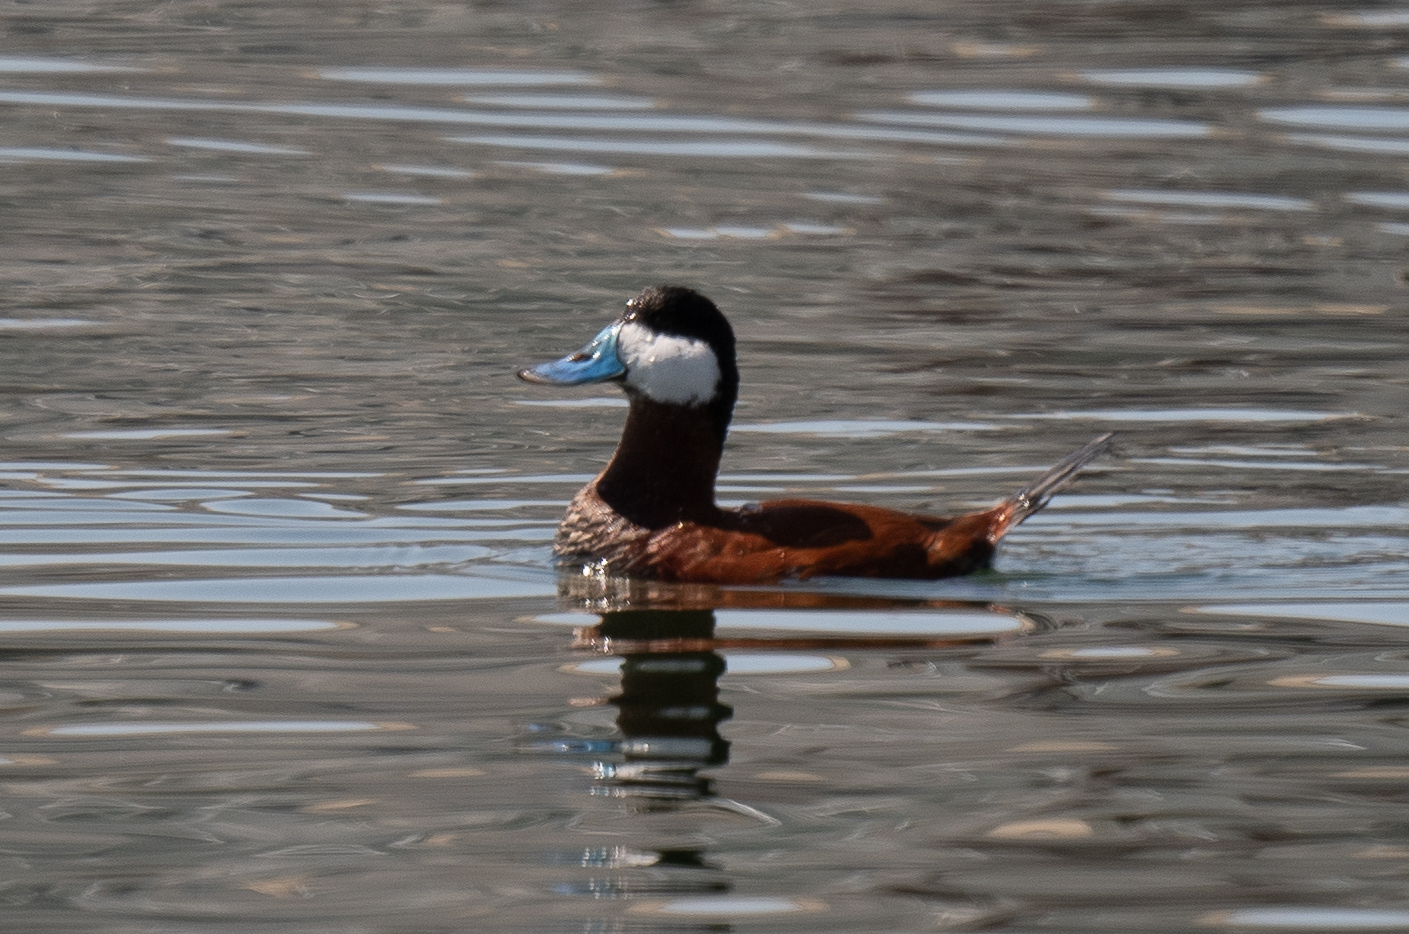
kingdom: Animalia
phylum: Chordata
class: Aves
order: Anseriformes
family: Anatidae
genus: Oxyura
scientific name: Oxyura jamaicensis
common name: Ruddy duck
